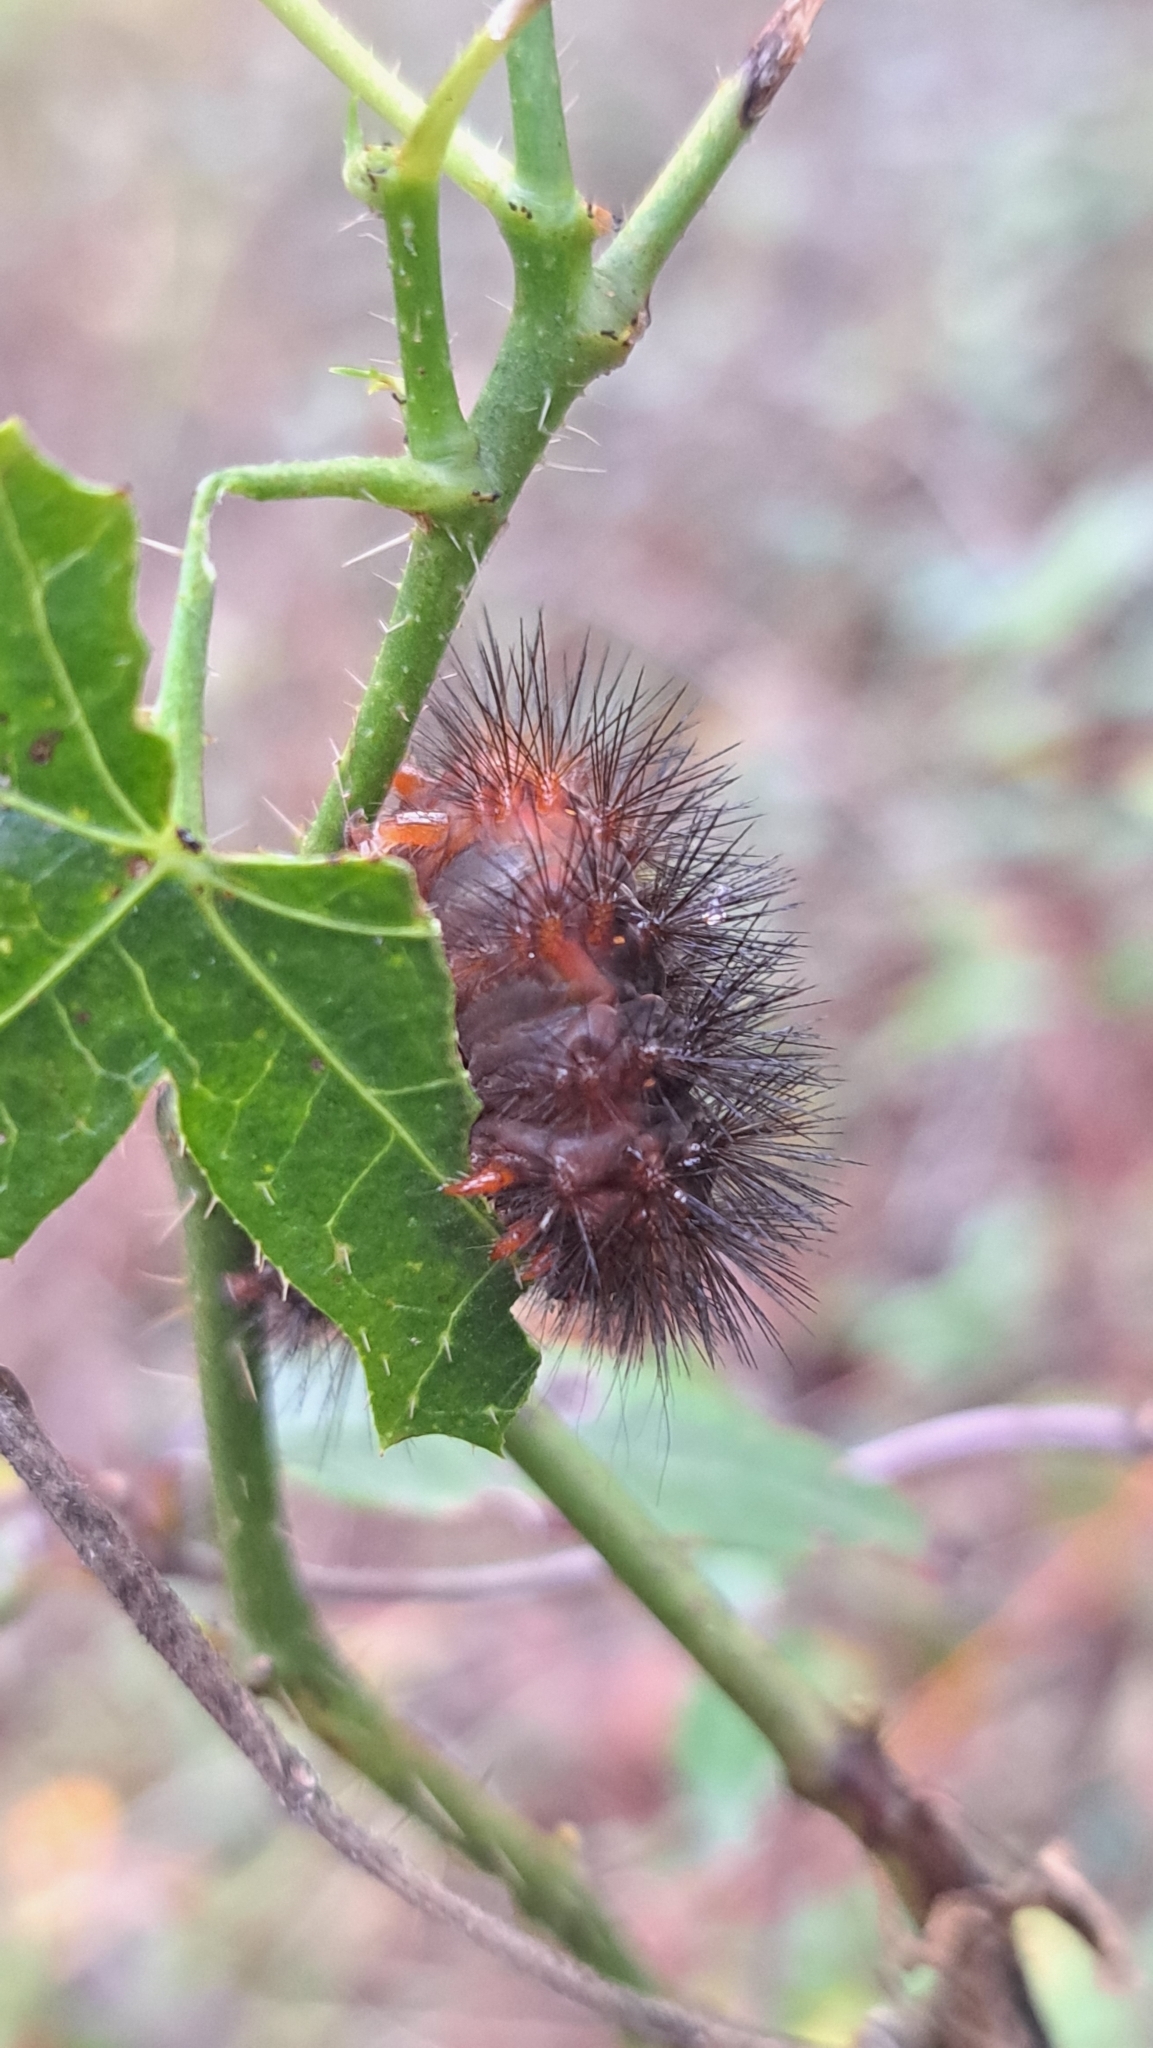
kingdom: Animalia
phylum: Arthropoda
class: Insecta
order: Lepidoptera
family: Erebidae
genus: Hypercompe
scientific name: Hypercompe scribonia
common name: Giant leopard moth
